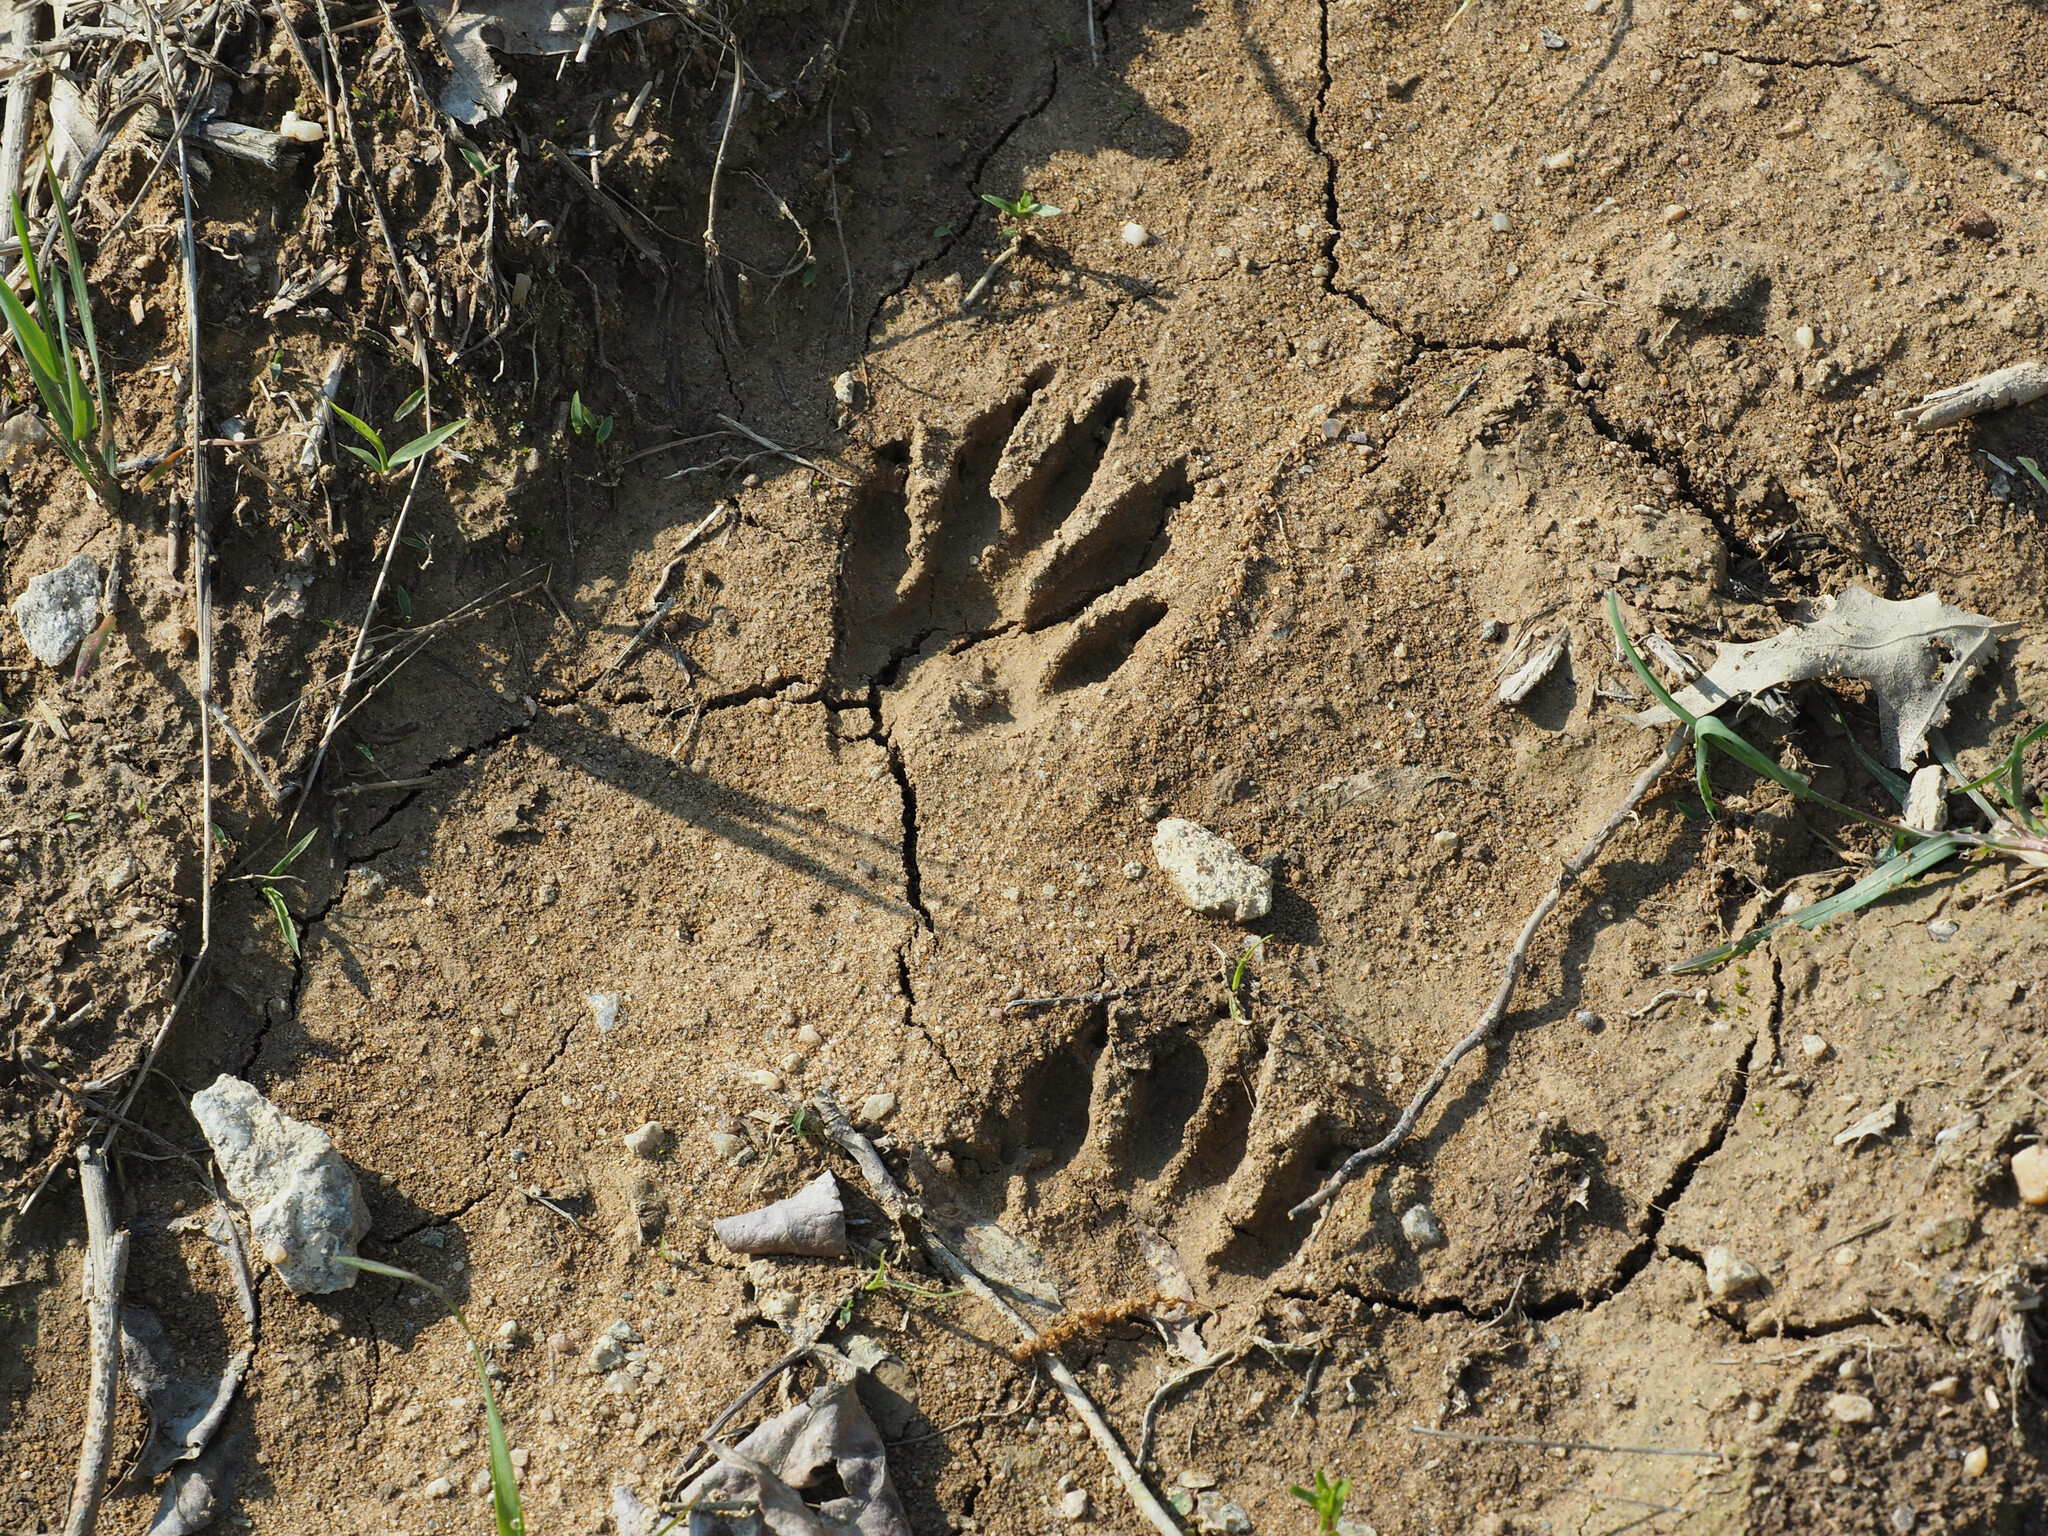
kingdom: Animalia
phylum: Chordata
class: Mammalia
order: Carnivora
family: Procyonidae
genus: Procyon
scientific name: Procyon lotor
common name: Raccoon
